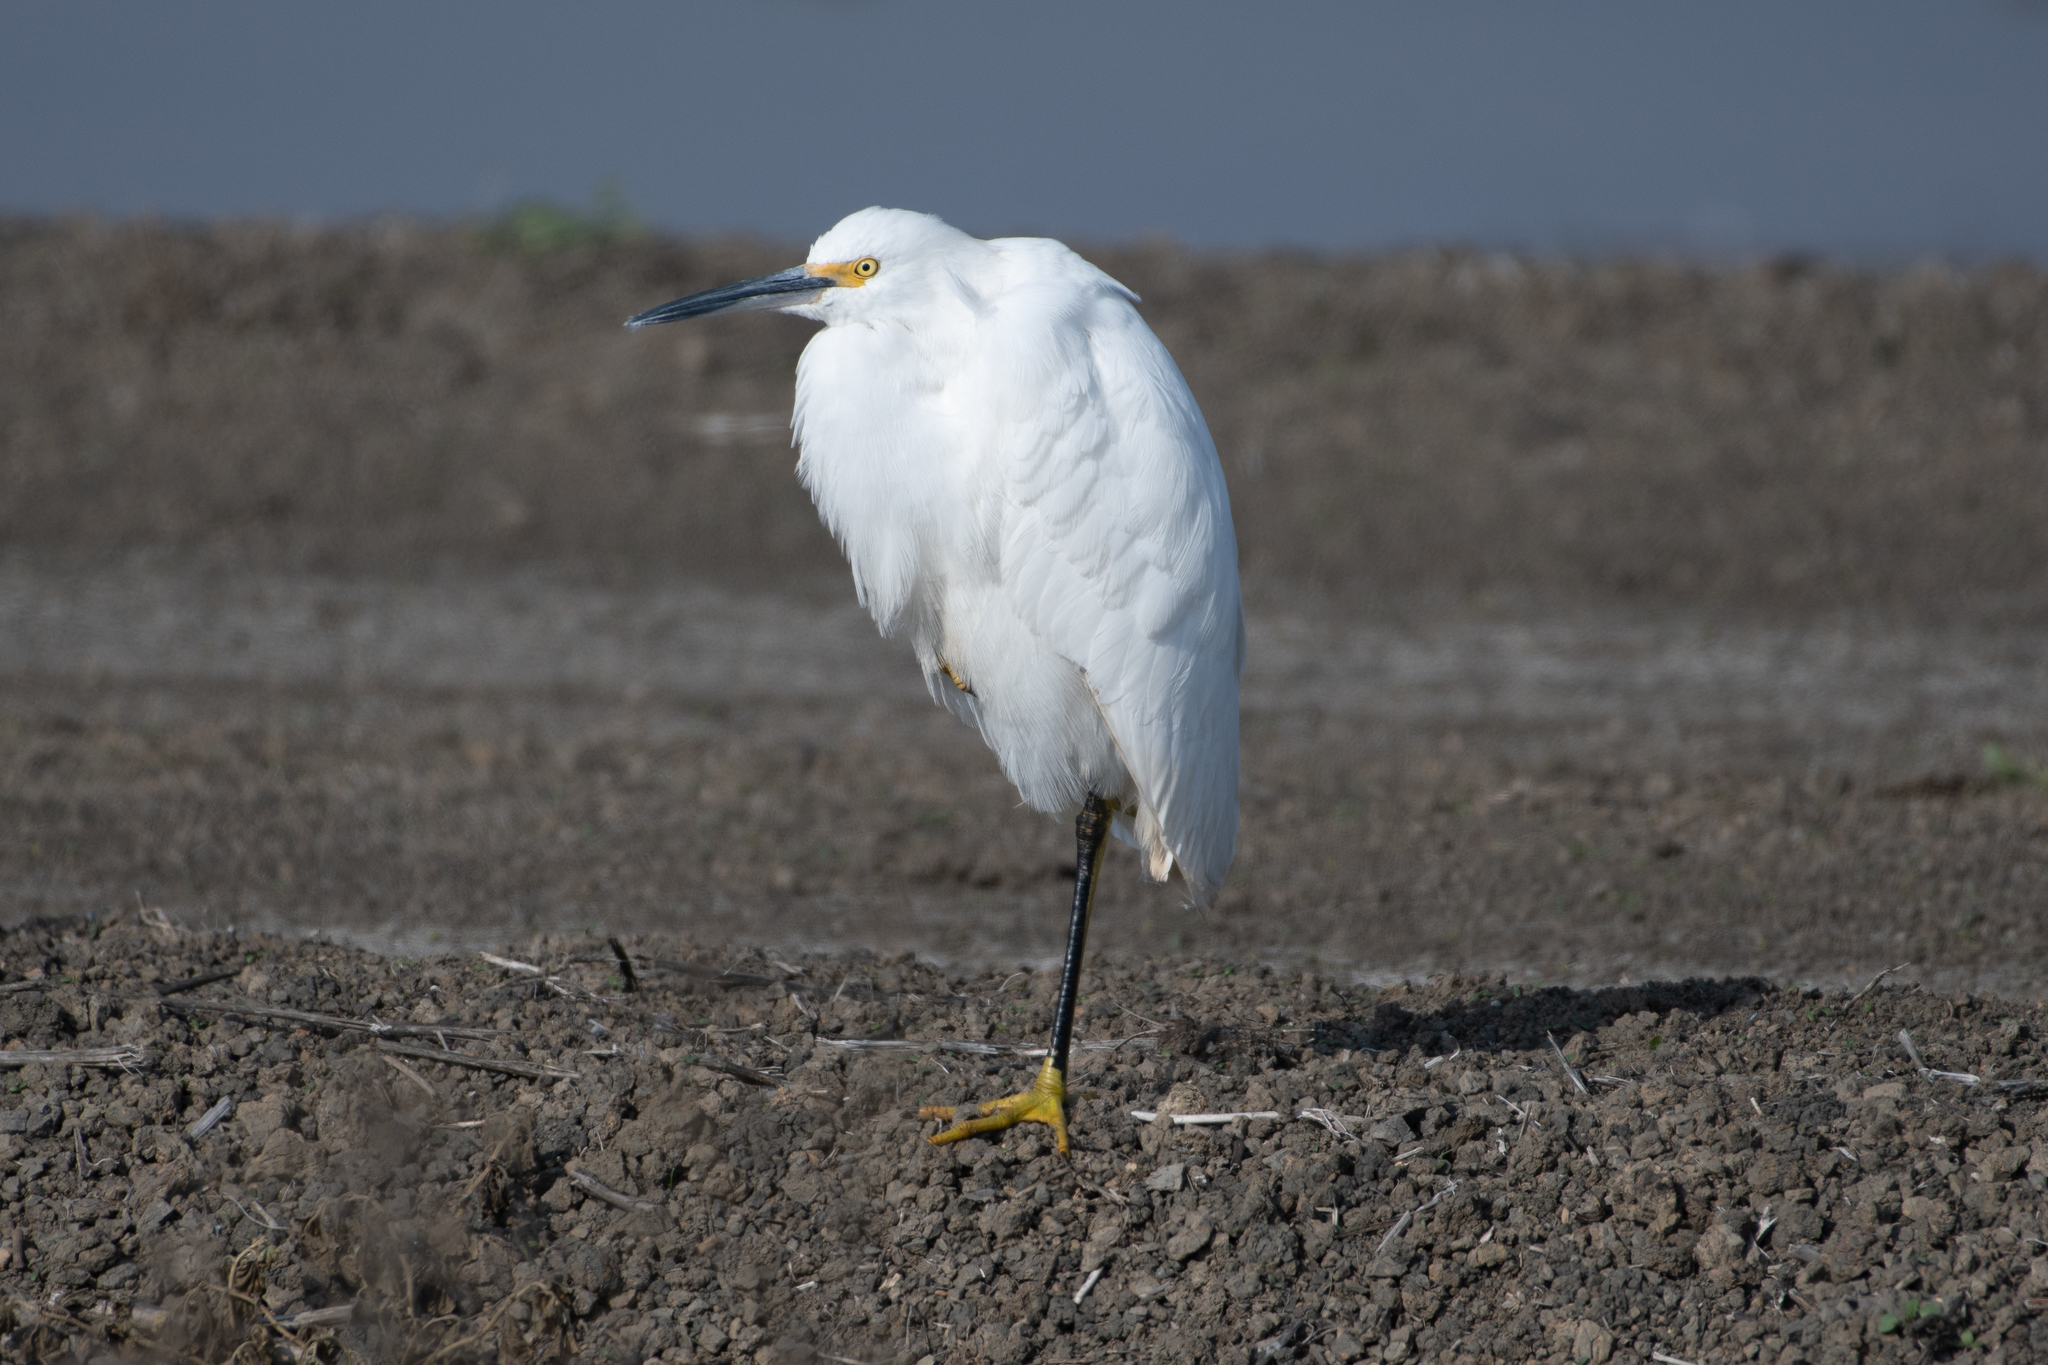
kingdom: Animalia
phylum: Chordata
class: Aves
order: Pelecaniformes
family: Ardeidae
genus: Egretta
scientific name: Egretta thula
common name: Snowy egret
